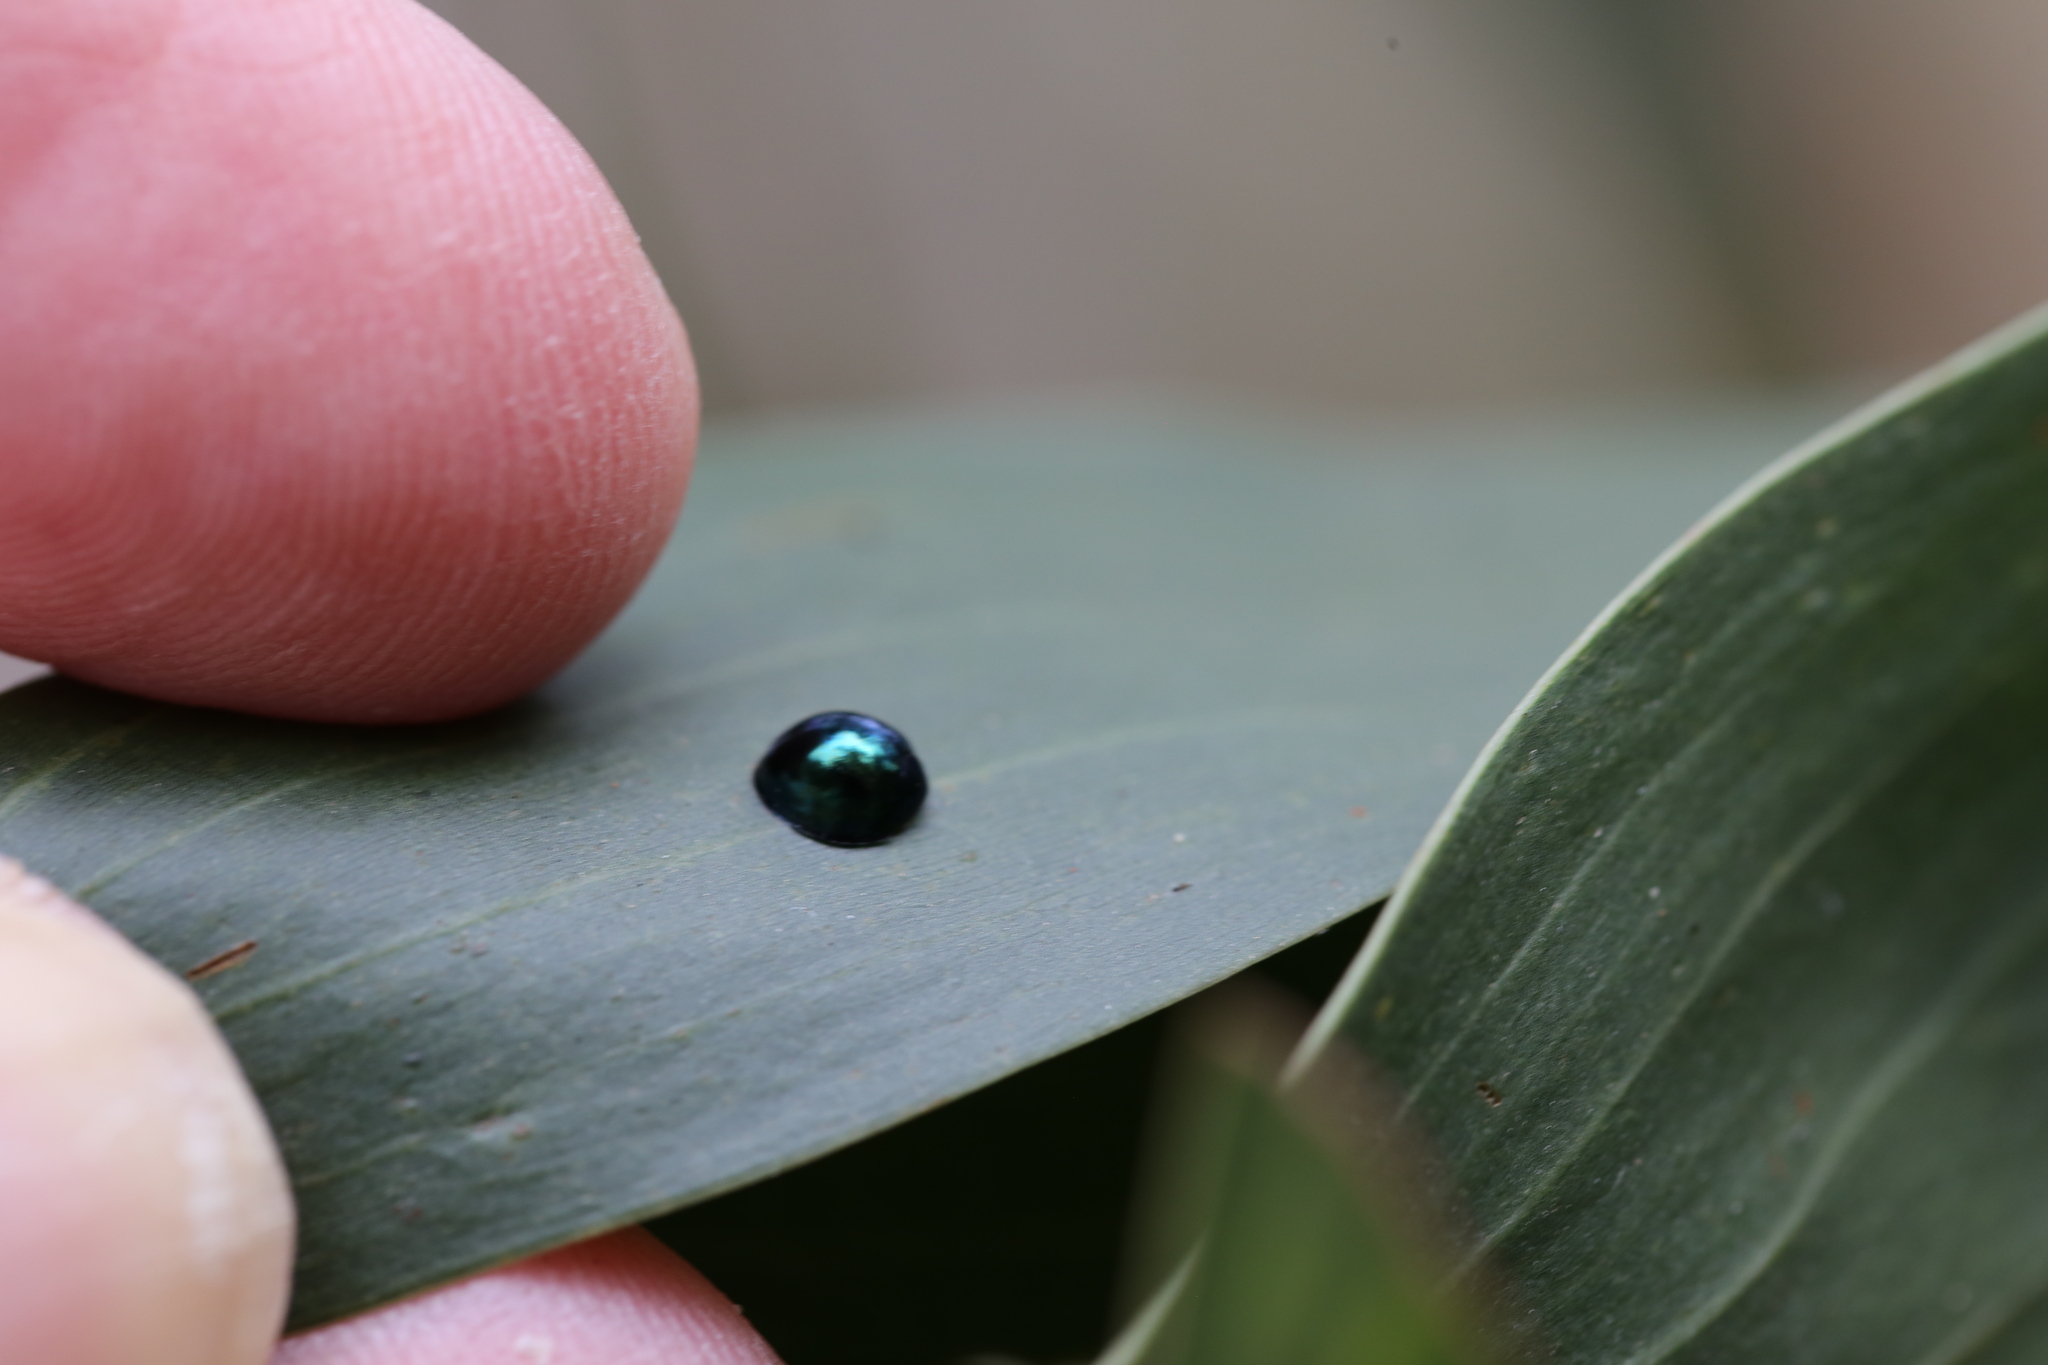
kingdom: Animalia
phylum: Arthropoda
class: Insecta
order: Coleoptera
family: Coccinellidae
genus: Halmus
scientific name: Halmus chalybeus
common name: Steel blue ladybird beetle
